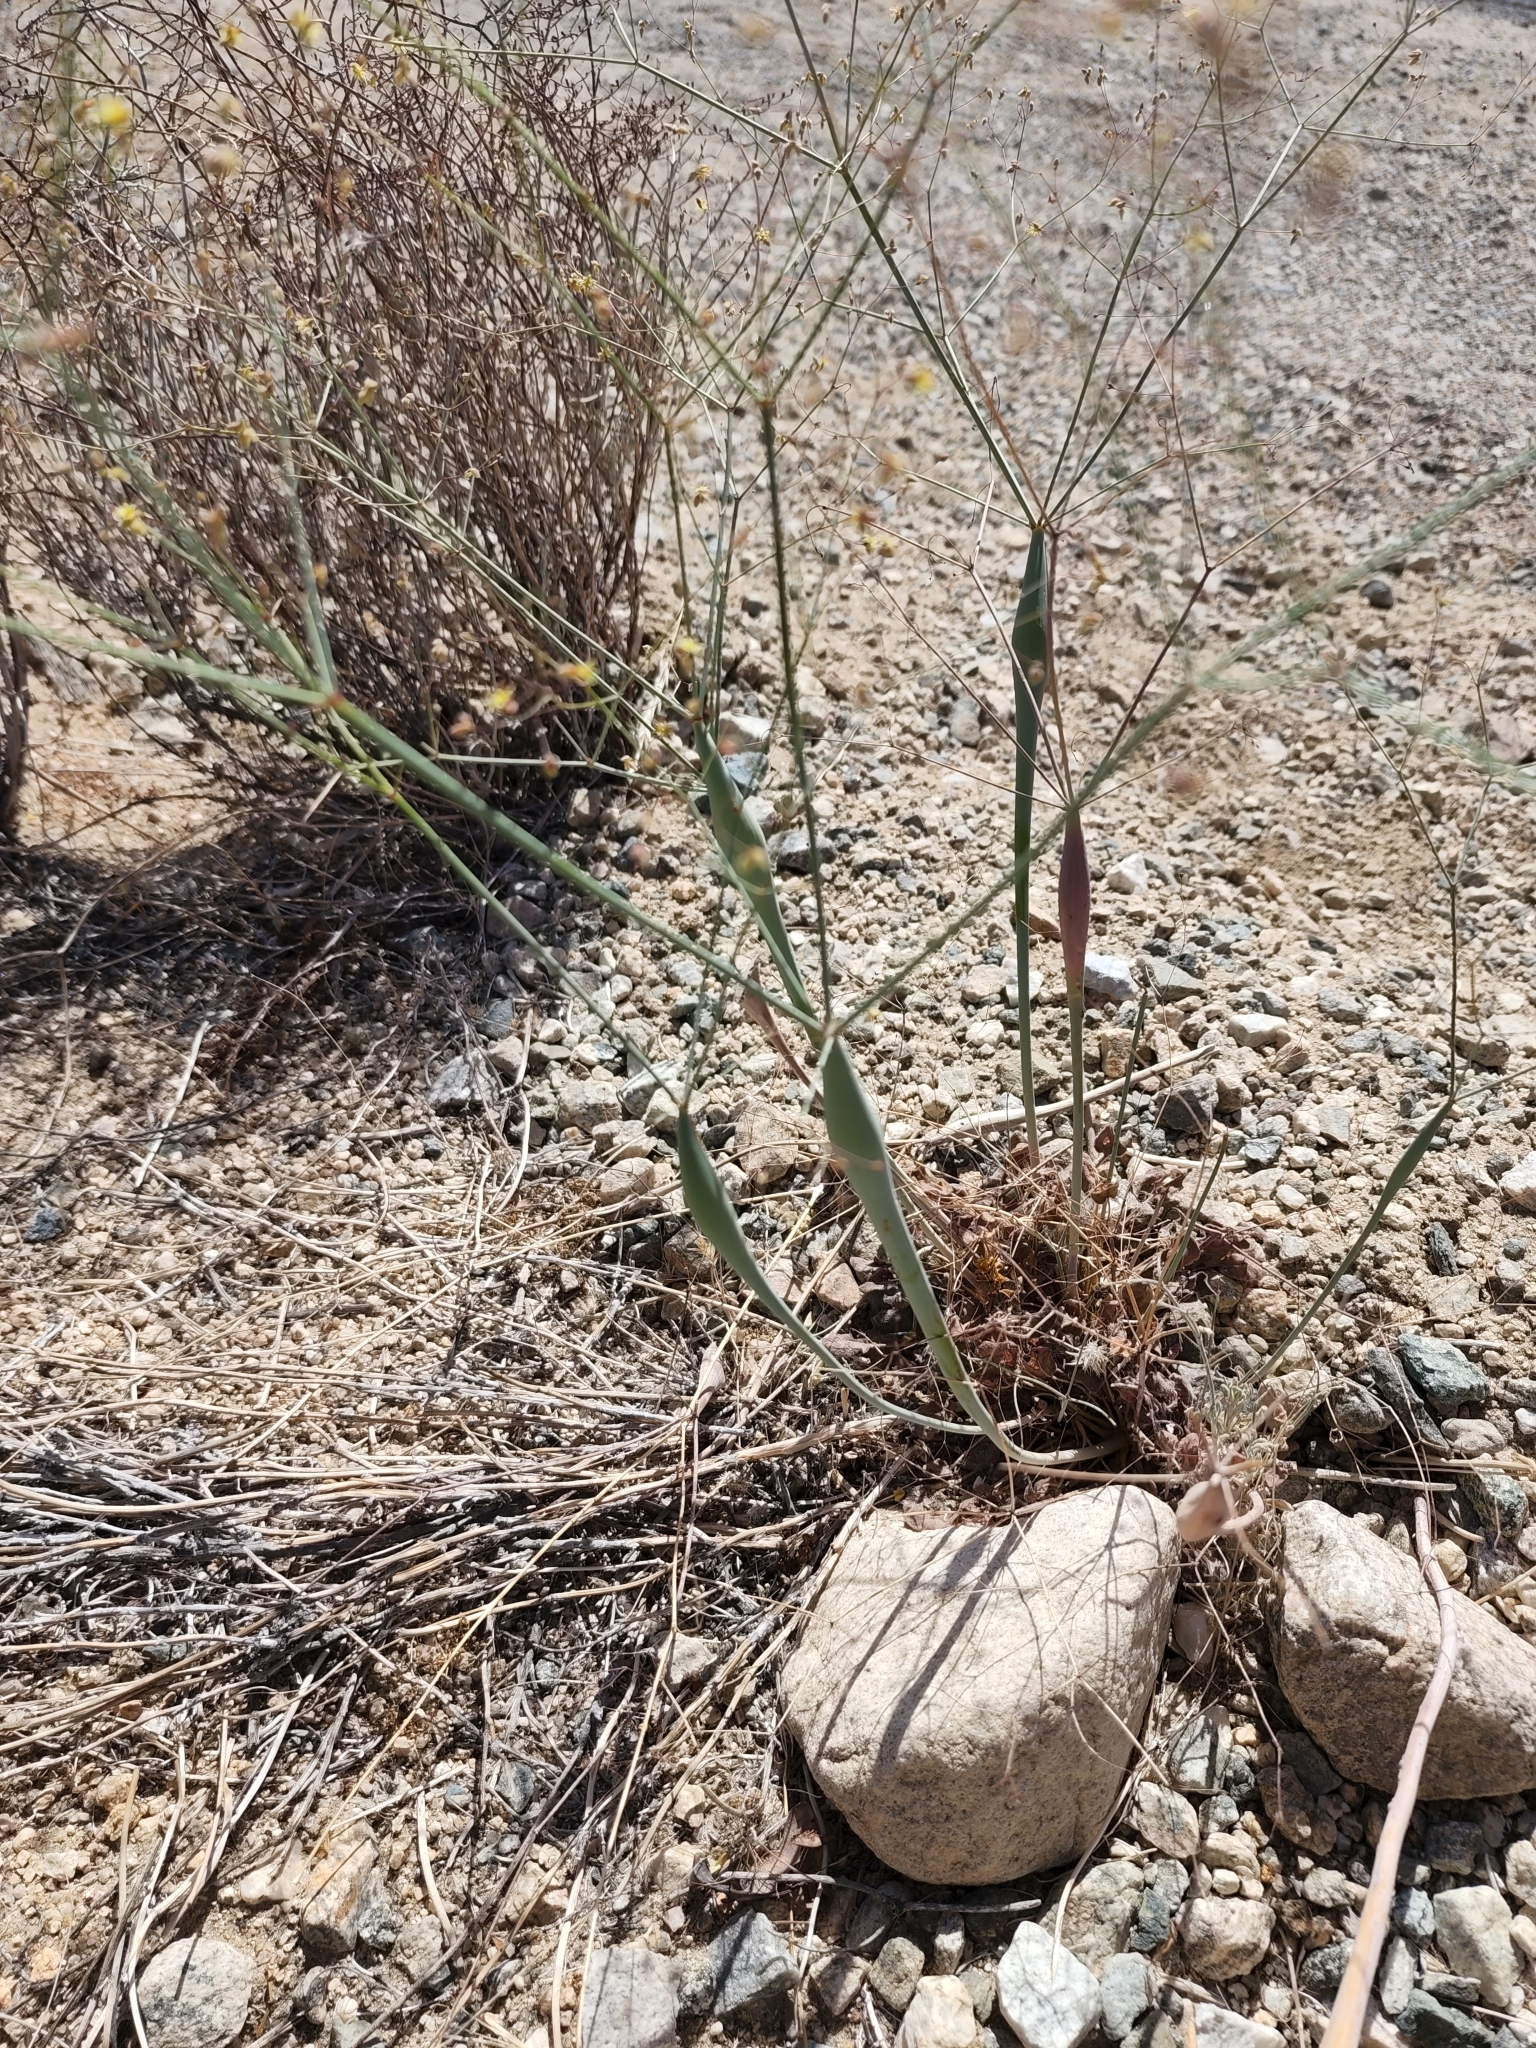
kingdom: Plantae
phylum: Tracheophyta
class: Magnoliopsida
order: Caryophyllales
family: Polygonaceae
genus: Eriogonum
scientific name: Eriogonum inflatum
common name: Desert trumpet
